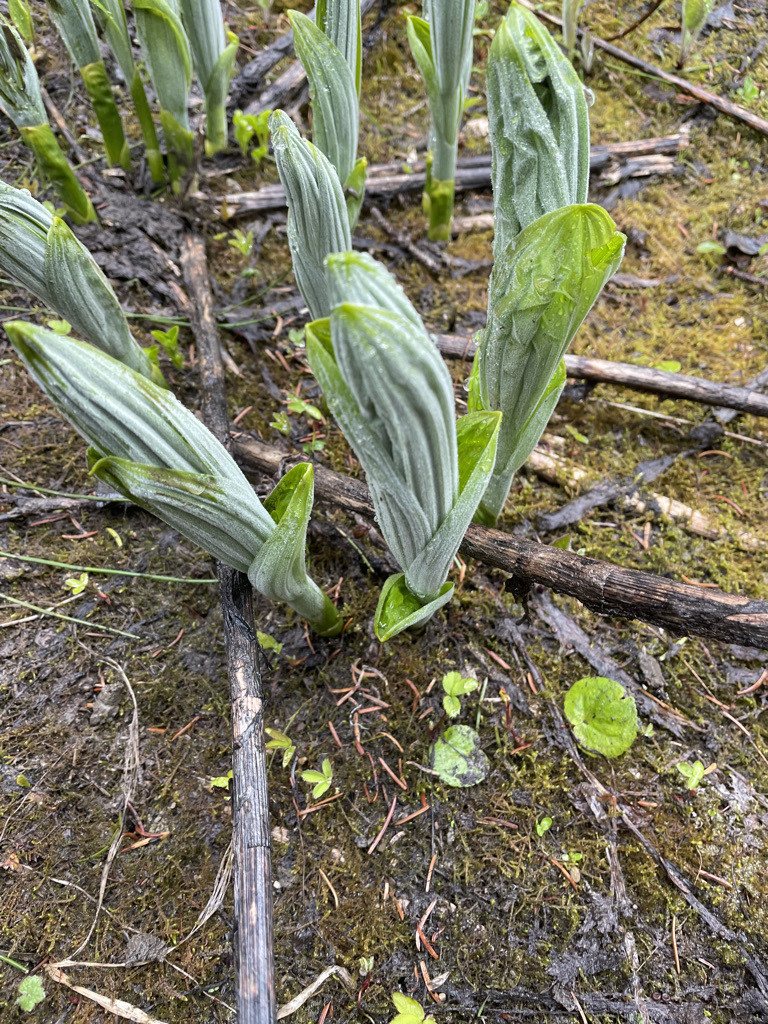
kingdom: Plantae
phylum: Tracheophyta
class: Liliopsida
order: Liliales
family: Melanthiaceae
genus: Veratrum
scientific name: Veratrum viride
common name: American false hellebore
